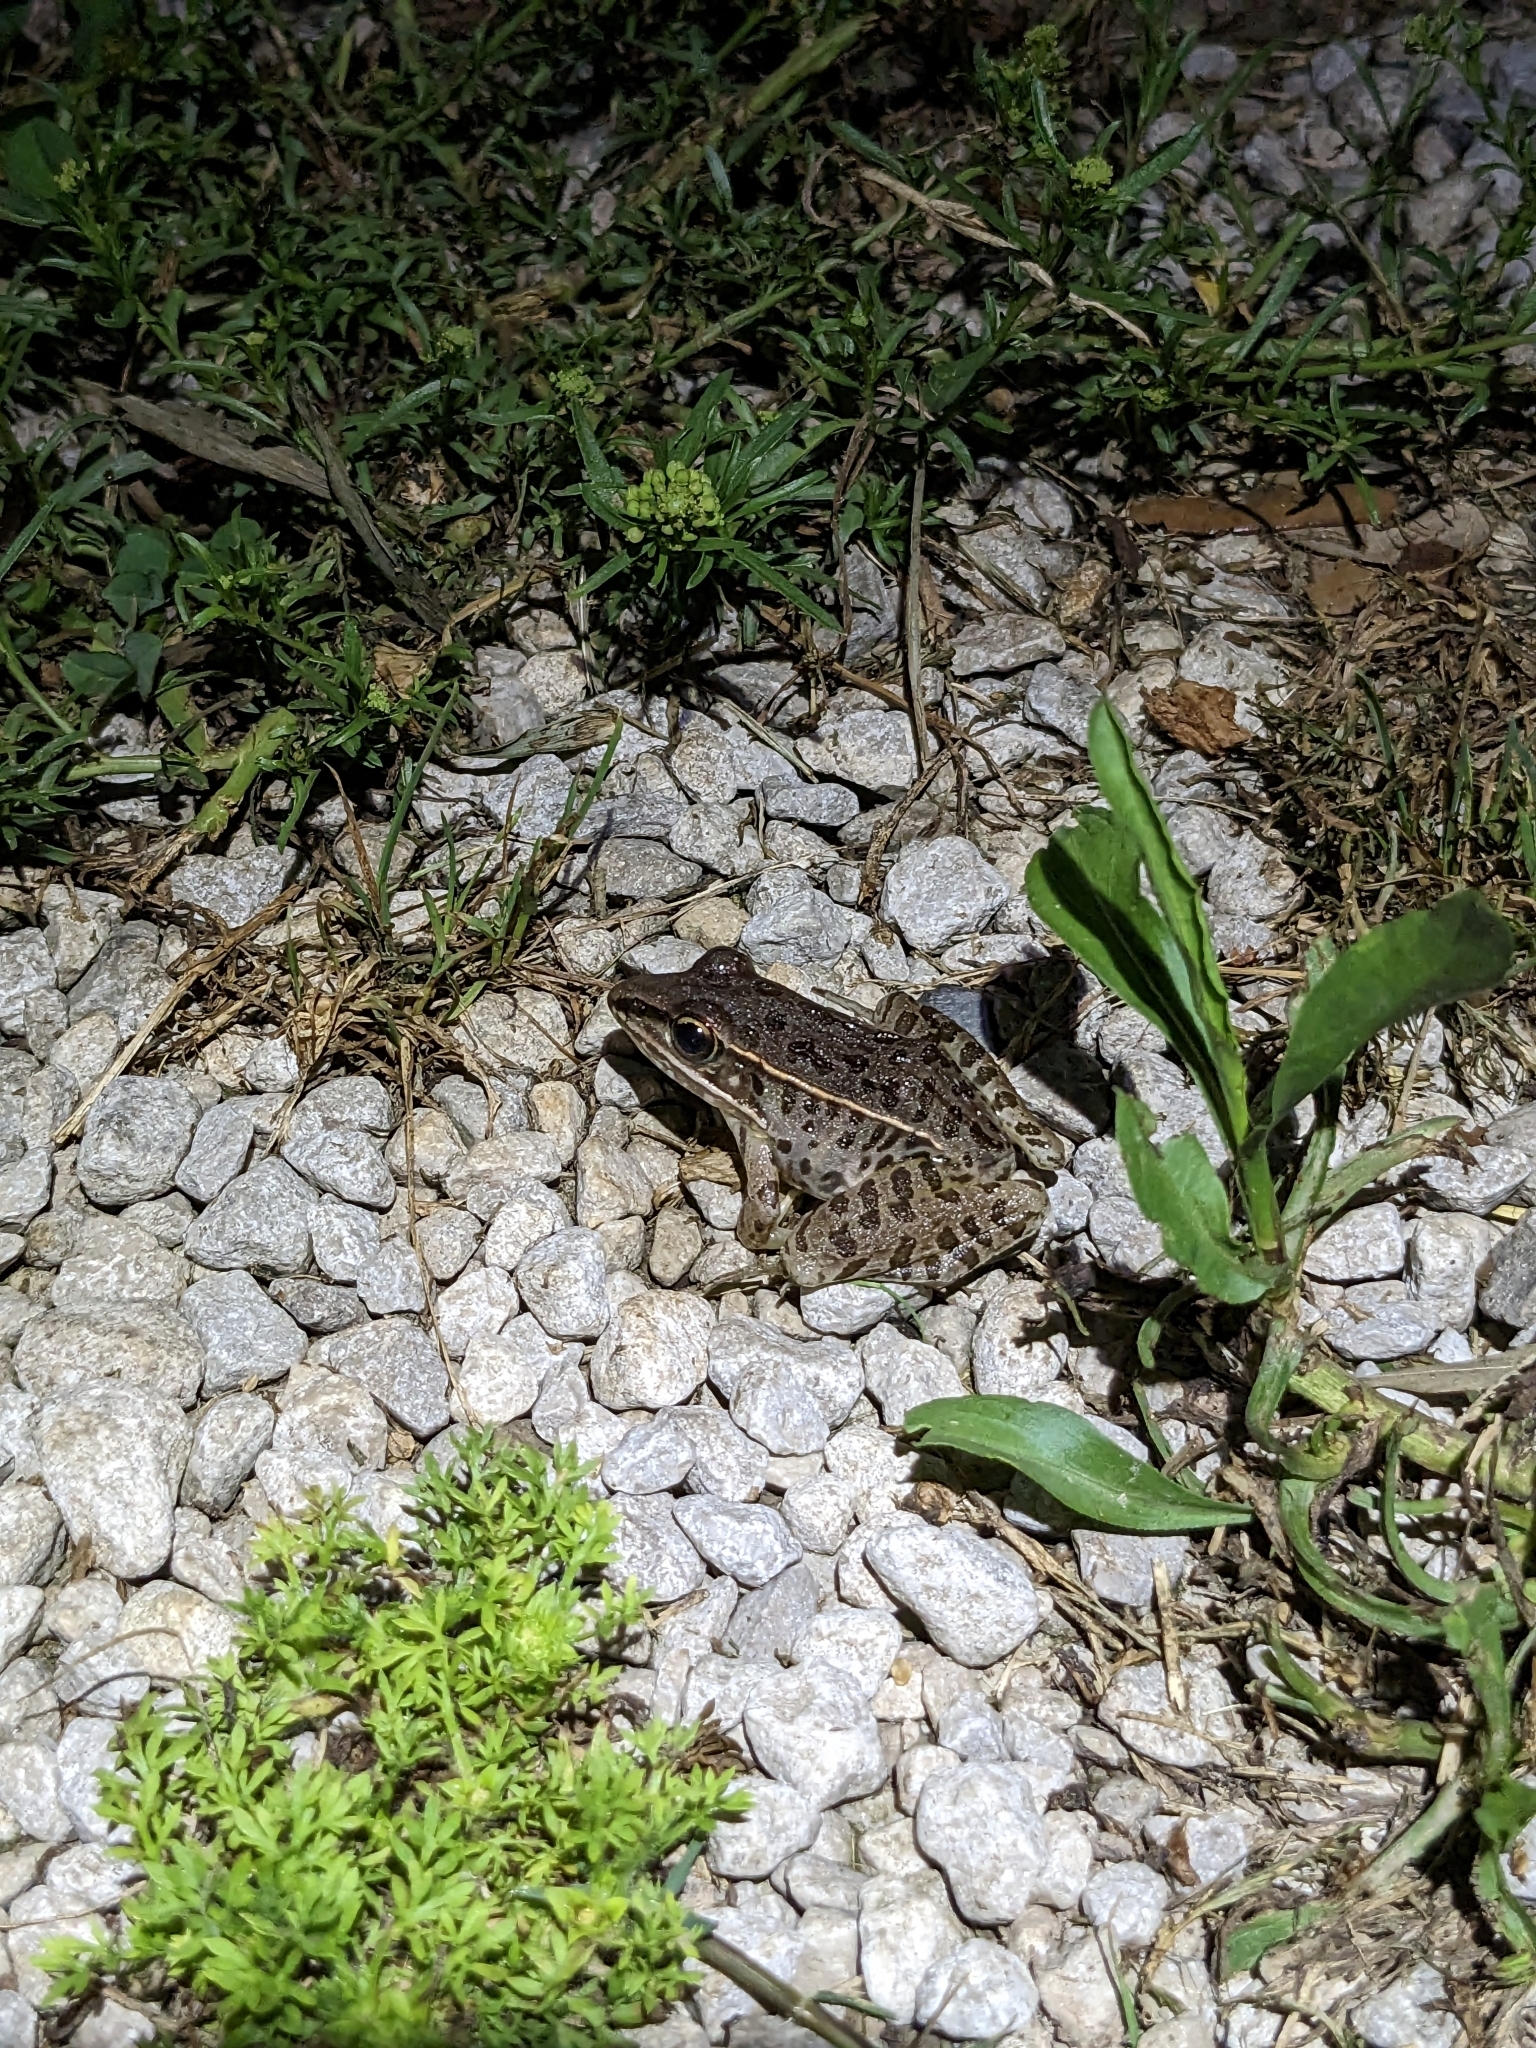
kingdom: Animalia
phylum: Chordata
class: Amphibia
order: Anura
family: Ranidae
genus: Lithobates
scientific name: Lithobates sphenocephalus
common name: Southern leopard frog
